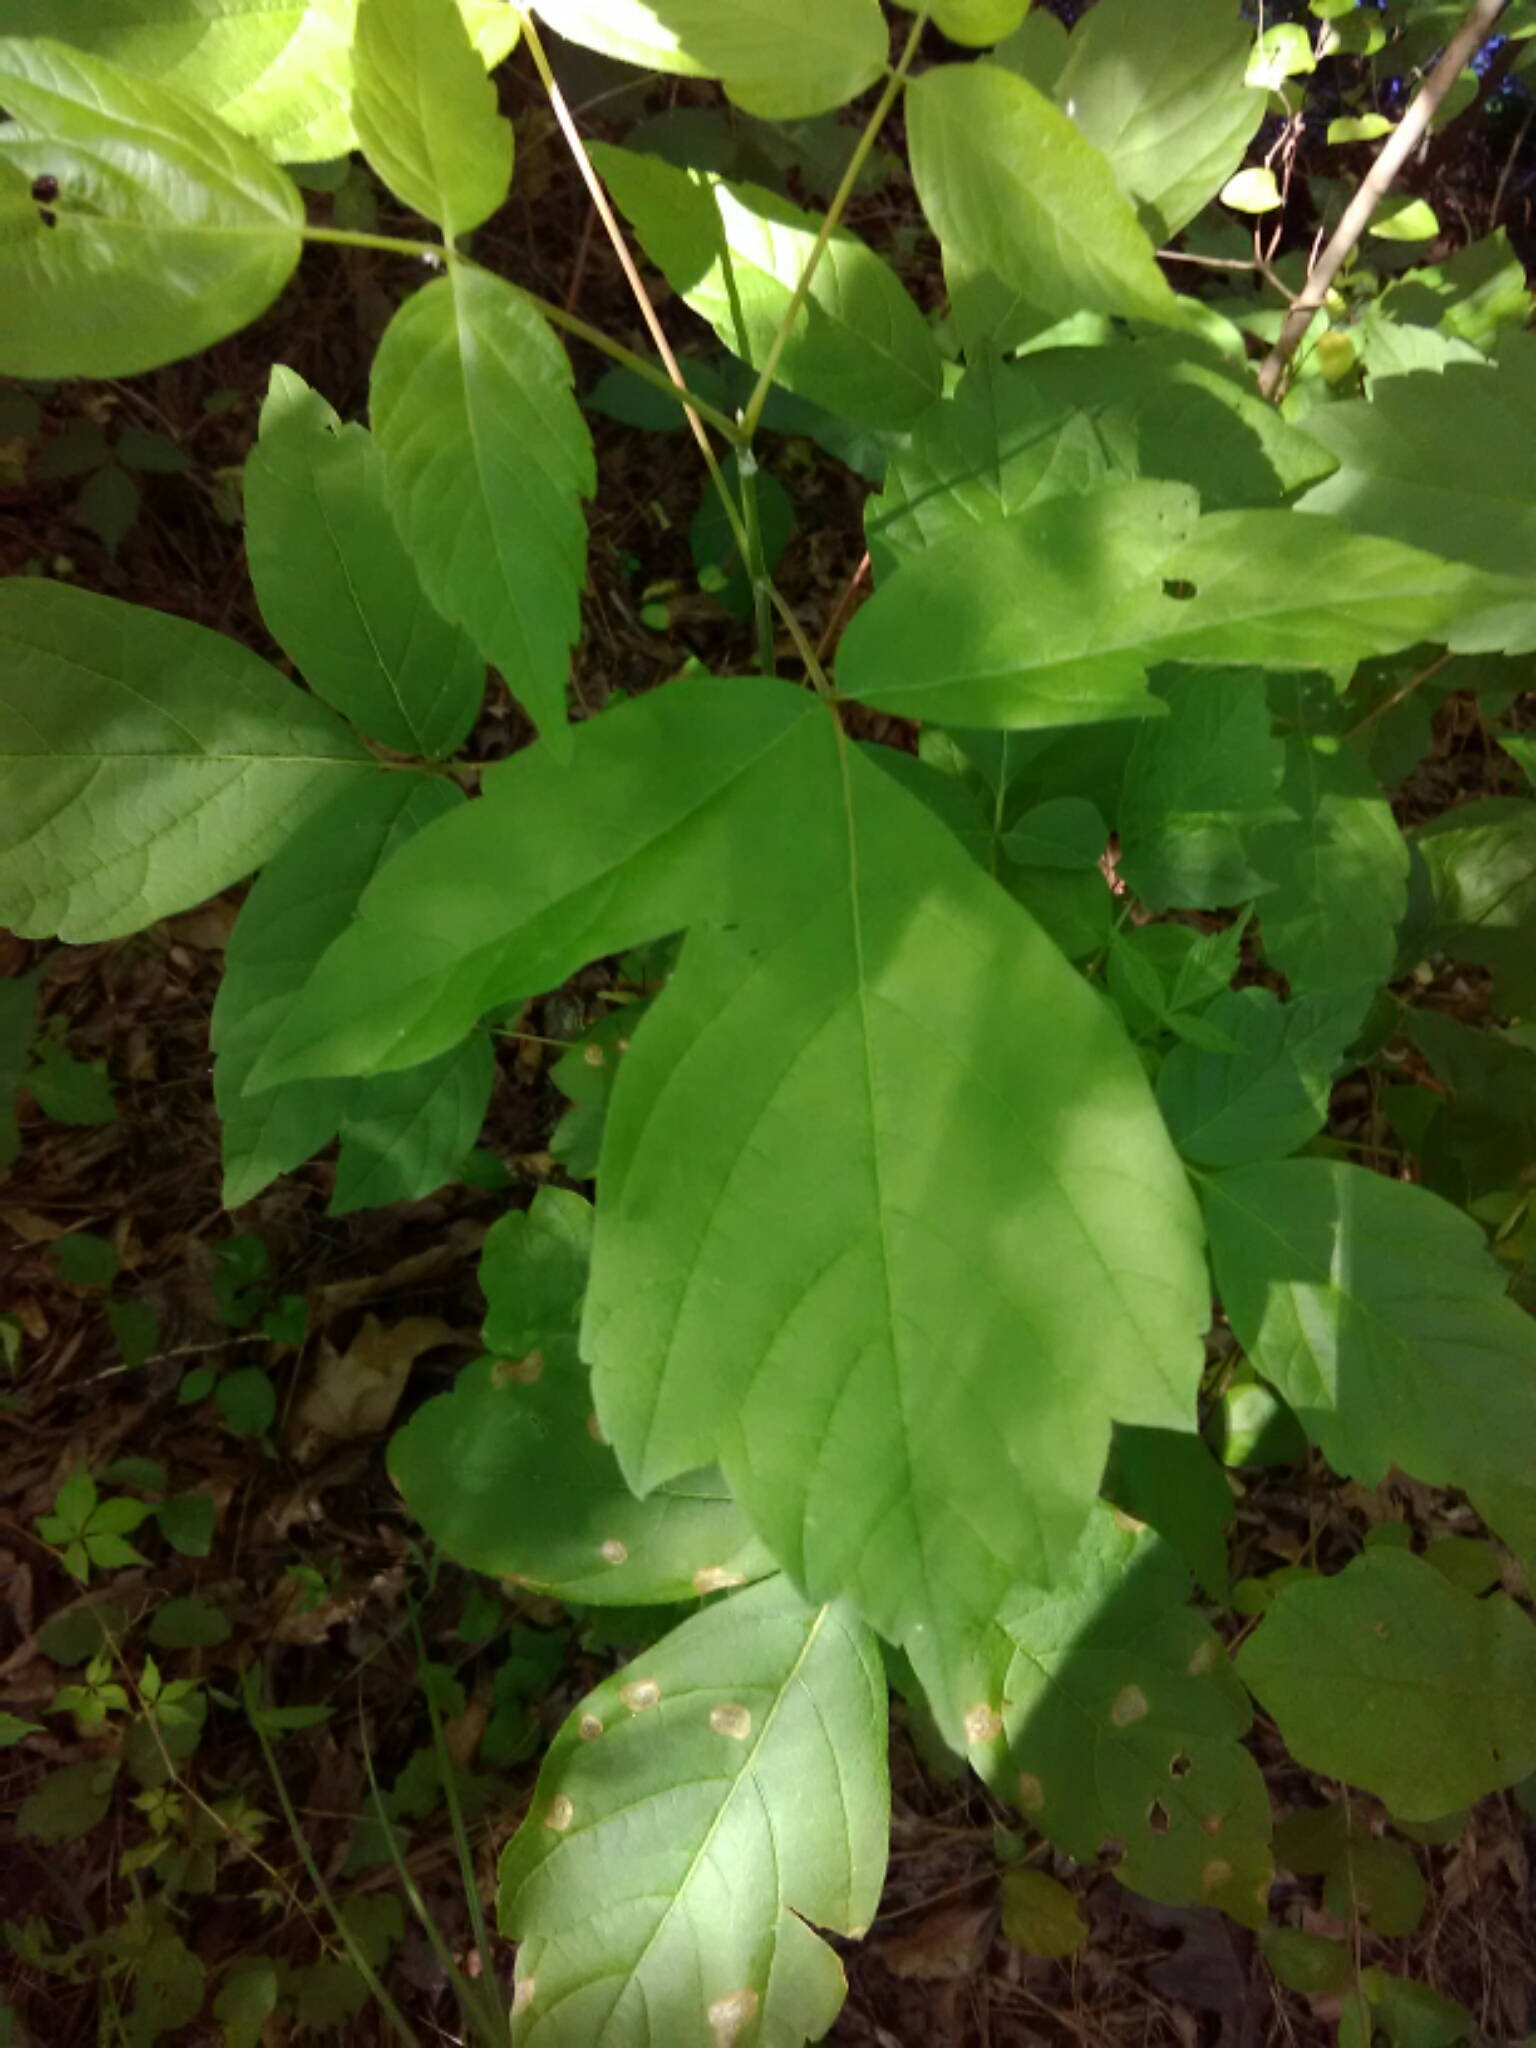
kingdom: Plantae
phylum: Tracheophyta
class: Magnoliopsida
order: Sapindales
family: Anacardiaceae
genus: Toxicodendron
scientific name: Toxicodendron radicans
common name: Poison ivy
